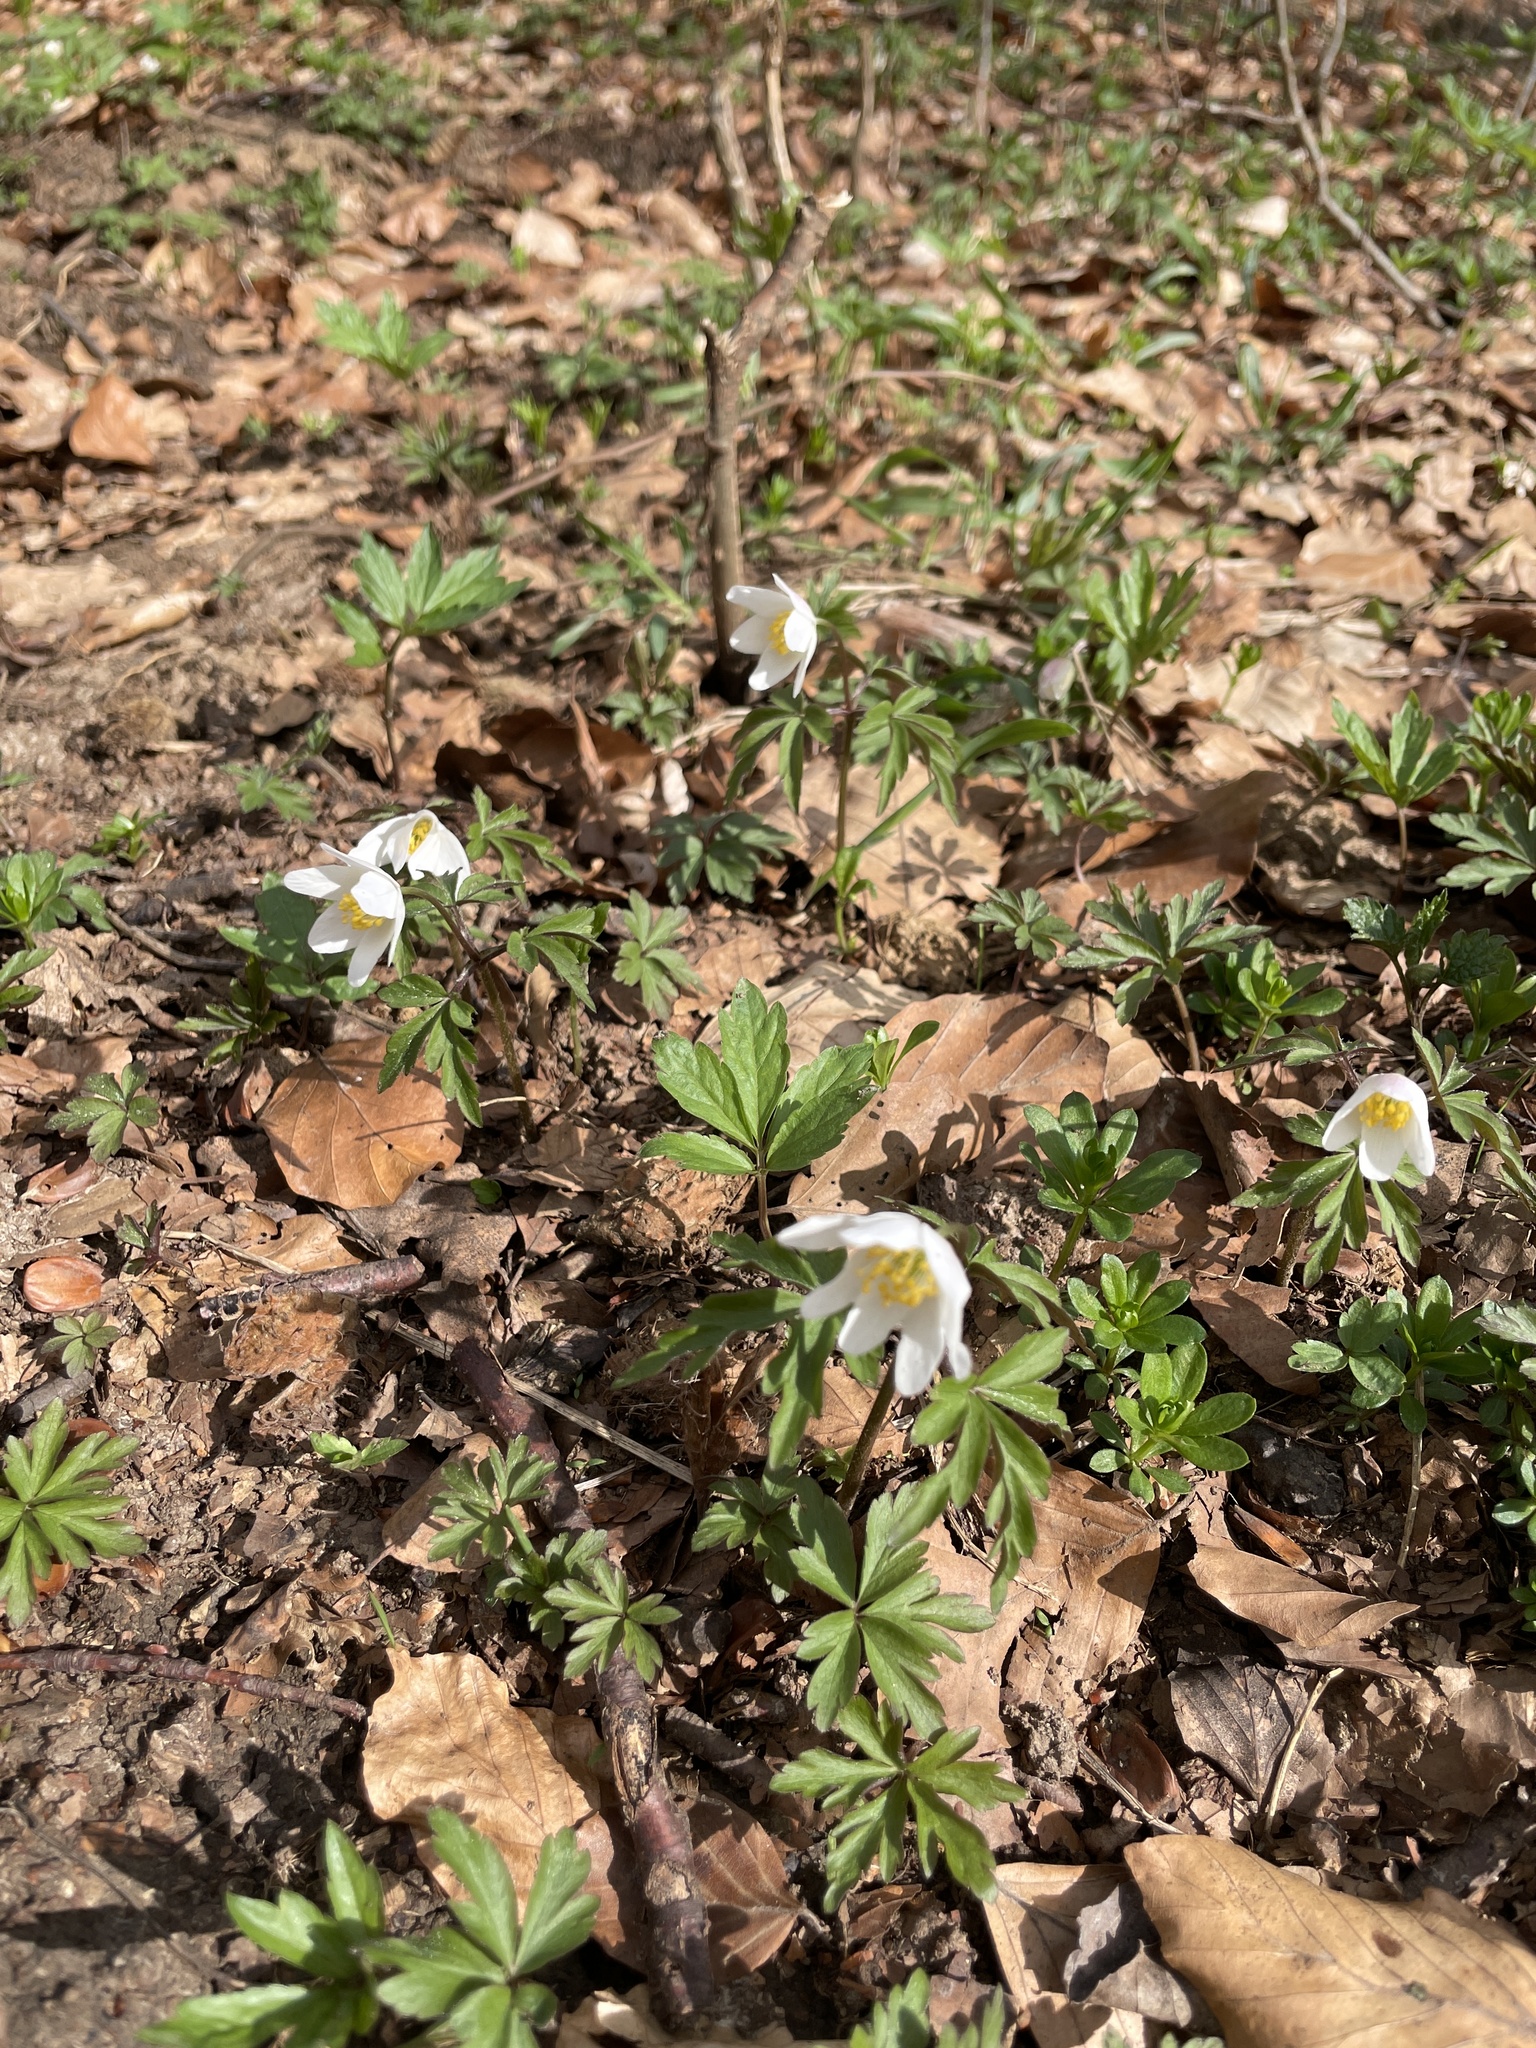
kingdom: Plantae
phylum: Tracheophyta
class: Magnoliopsida
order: Ranunculales
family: Ranunculaceae
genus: Anemone
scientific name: Anemone nemorosa
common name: Wood anemone
